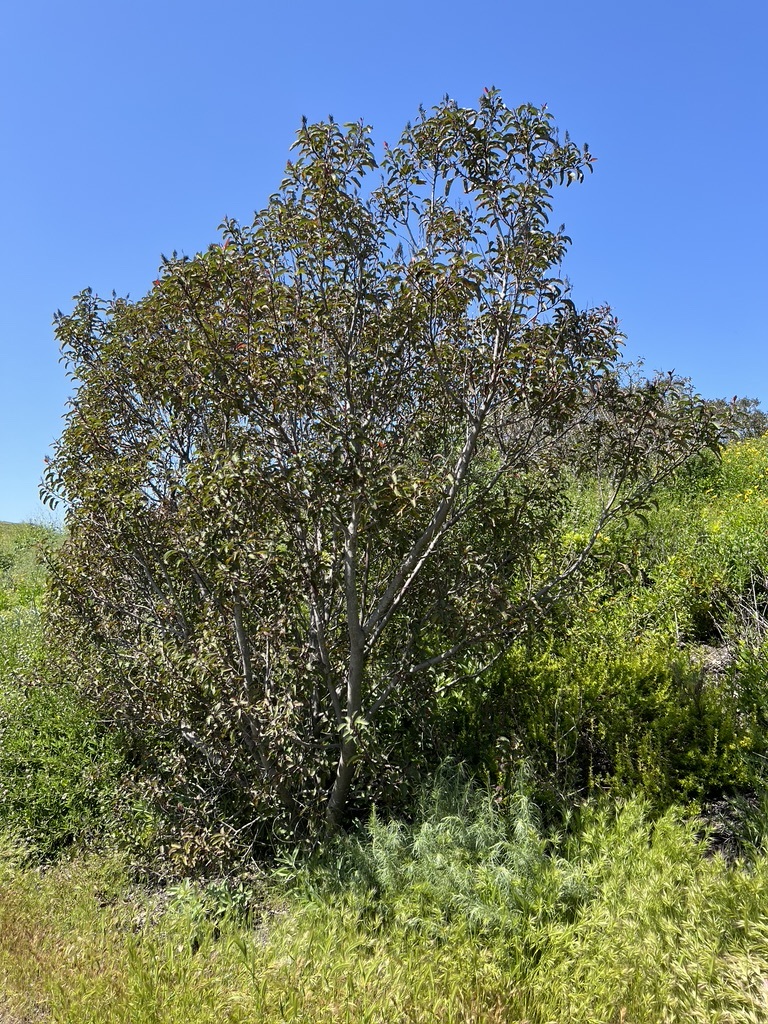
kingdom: Plantae
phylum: Tracheophyta
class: Magnoliopsida
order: Sapindales
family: Anacardiaceae
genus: Malosma
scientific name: Malosma laurina
